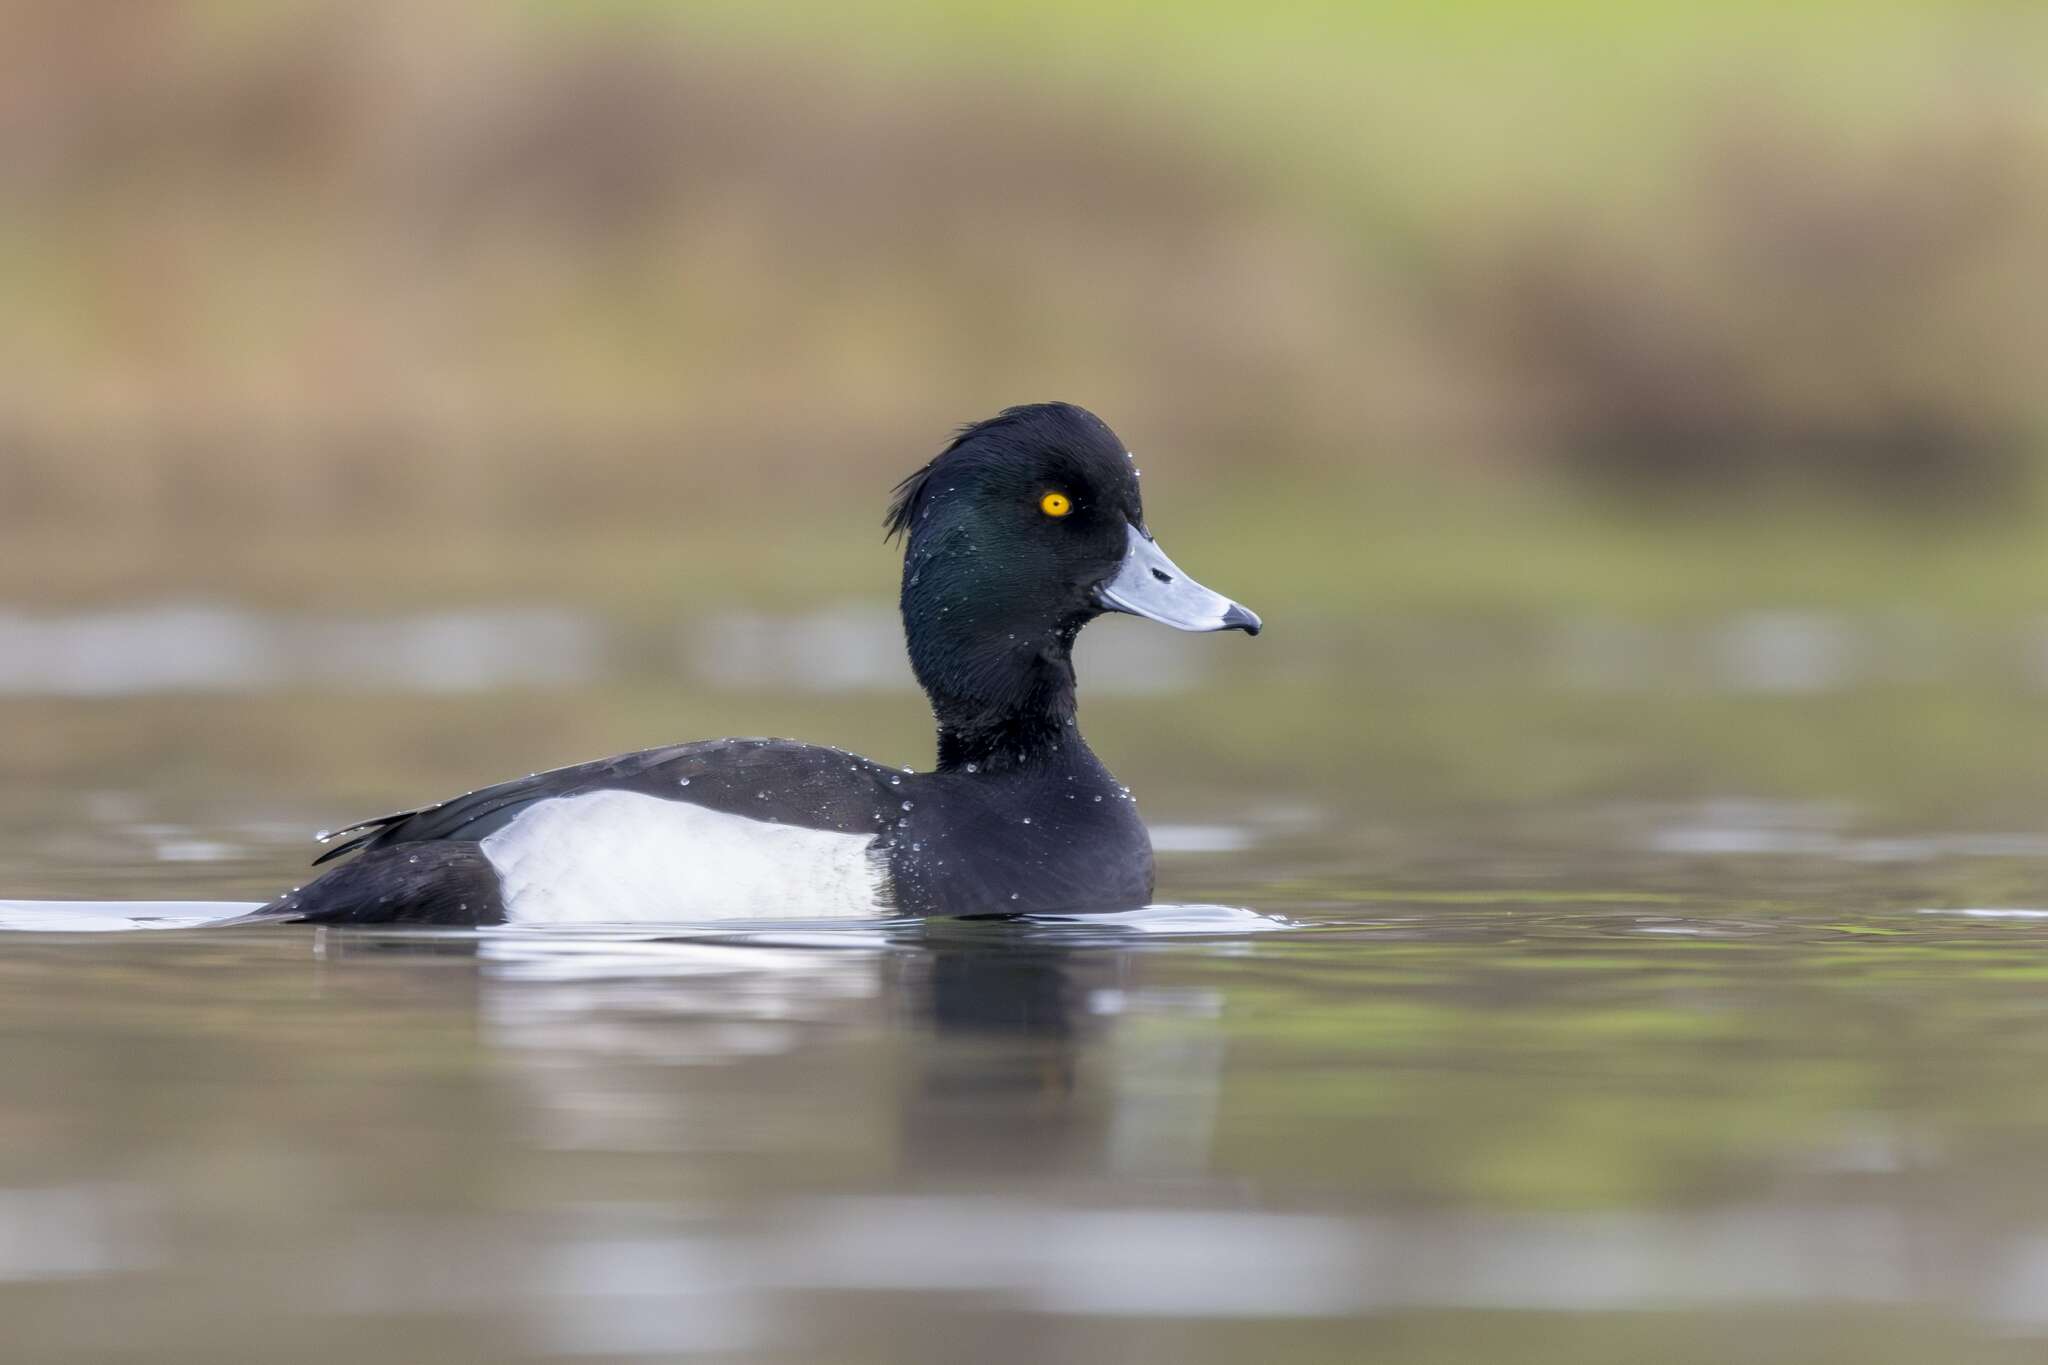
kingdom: Animalia
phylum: Chordata
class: Aves
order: Anseriformes
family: Anatidae
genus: Aythya
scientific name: Aythya fuligula
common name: Tufted duck
